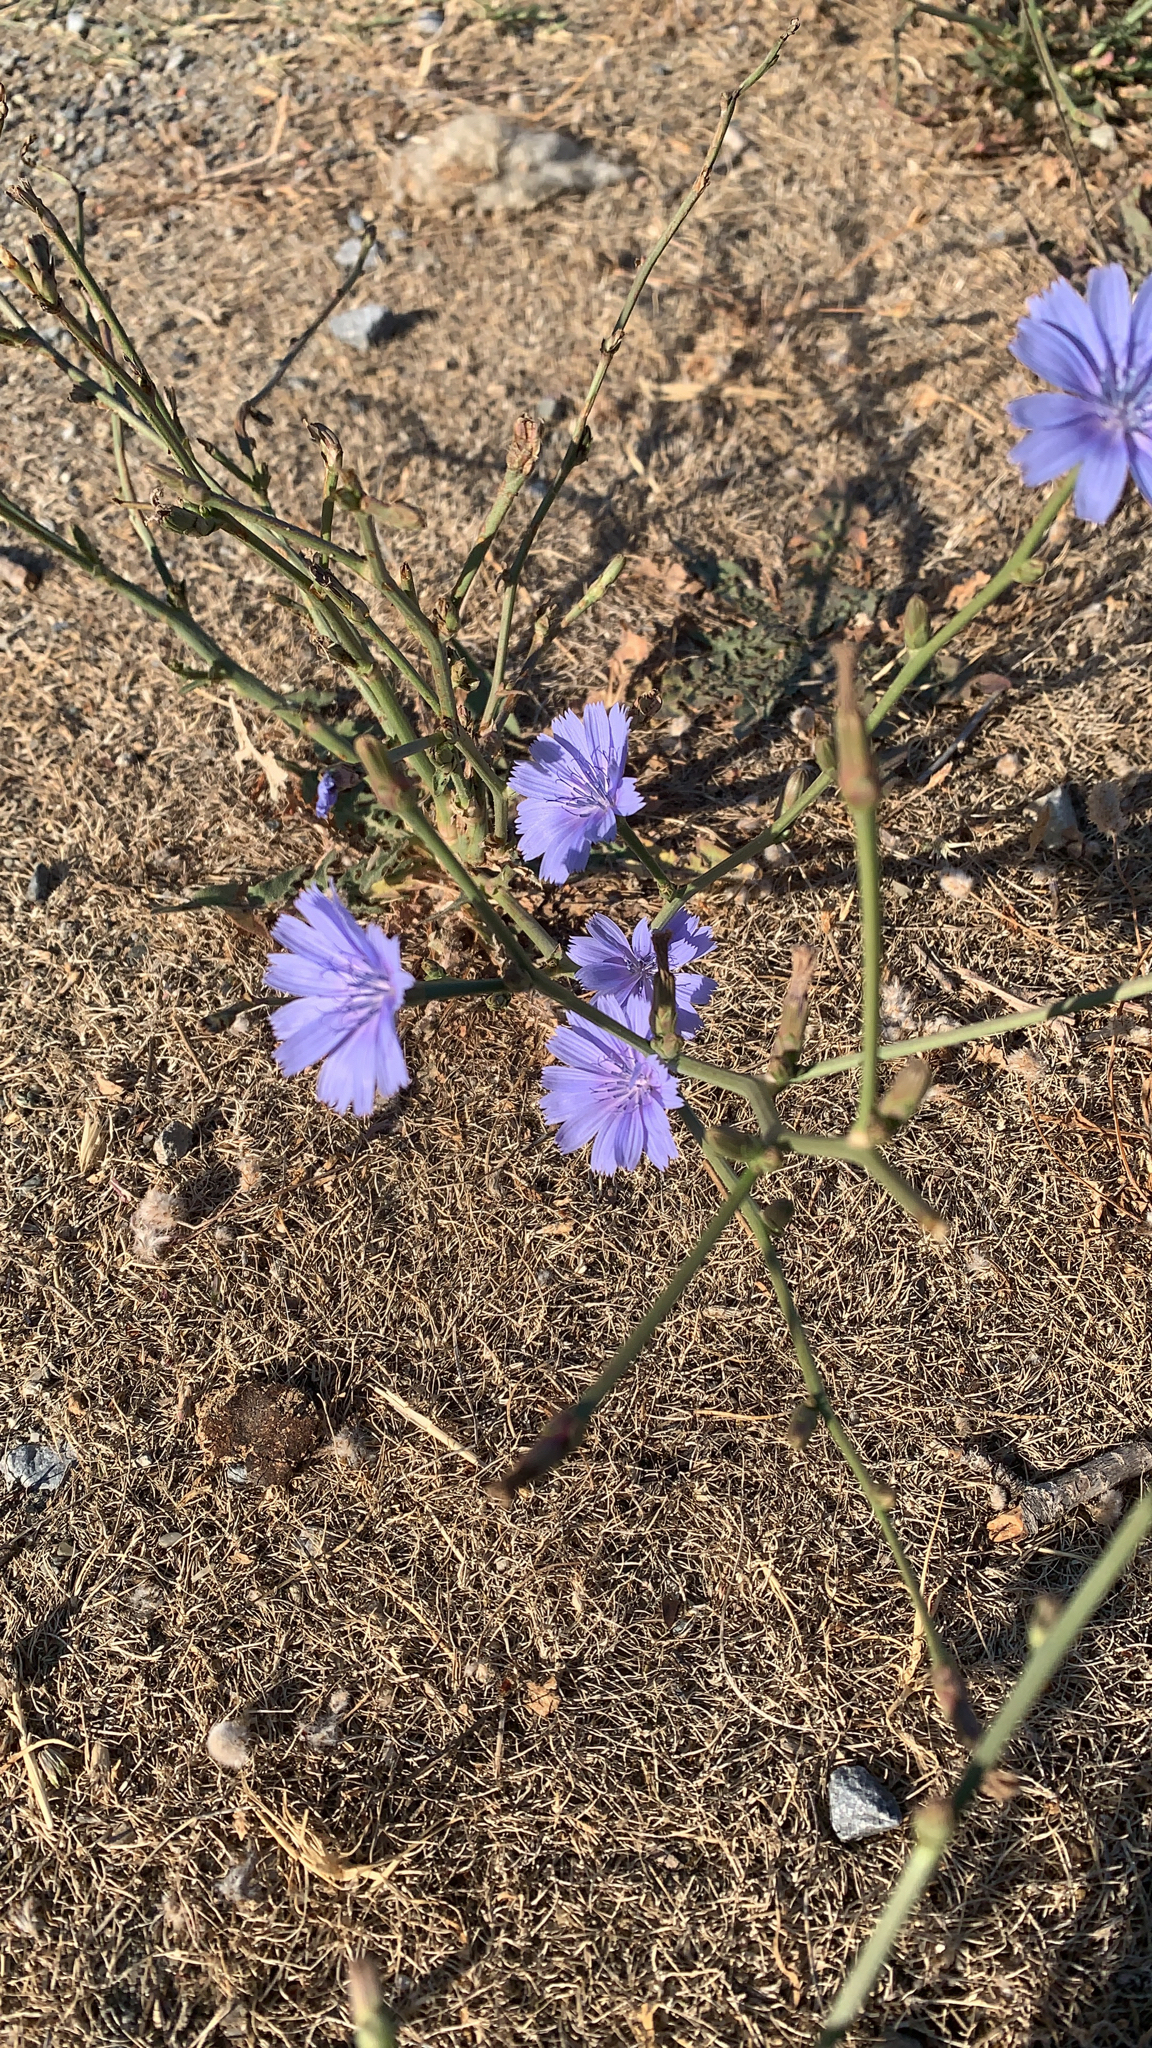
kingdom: Plantae
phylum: Tracheophyta
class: Magnoliopsida
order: Asterales
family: Asteraceae
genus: Cichorium
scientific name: Cichorium intybus
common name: Chicory
